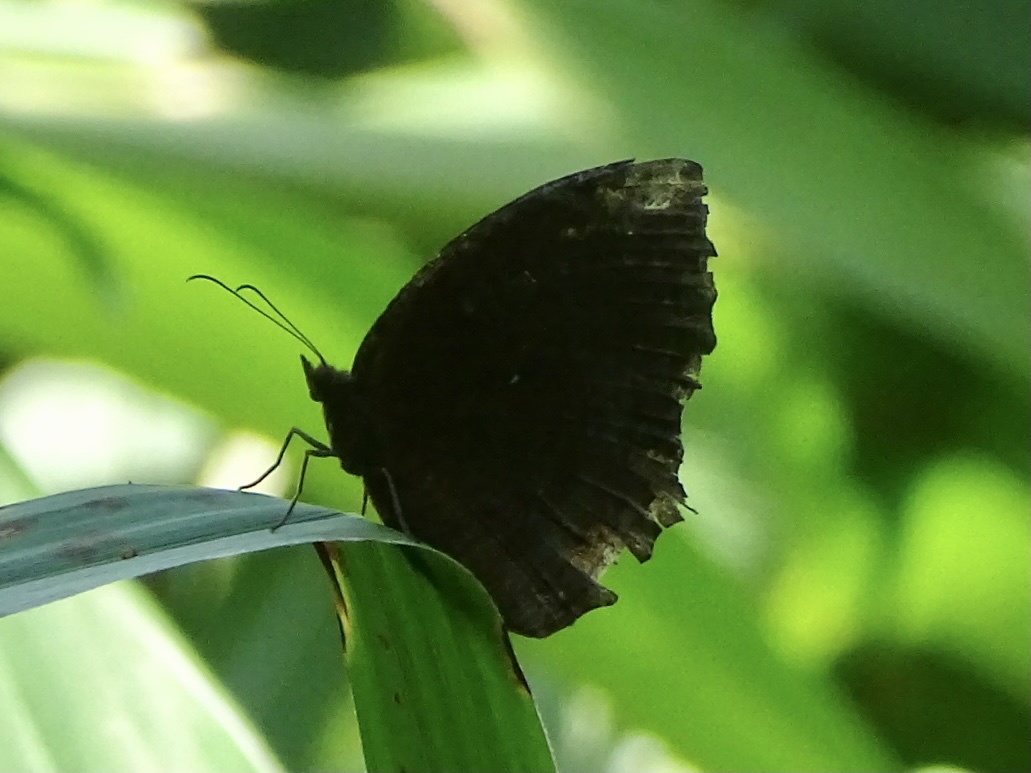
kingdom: Animalia
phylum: Arthropoda
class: Insecta
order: Lepidoptera
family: Nymphalidae
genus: Elymnias
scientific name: Elymnias hypermnestra
